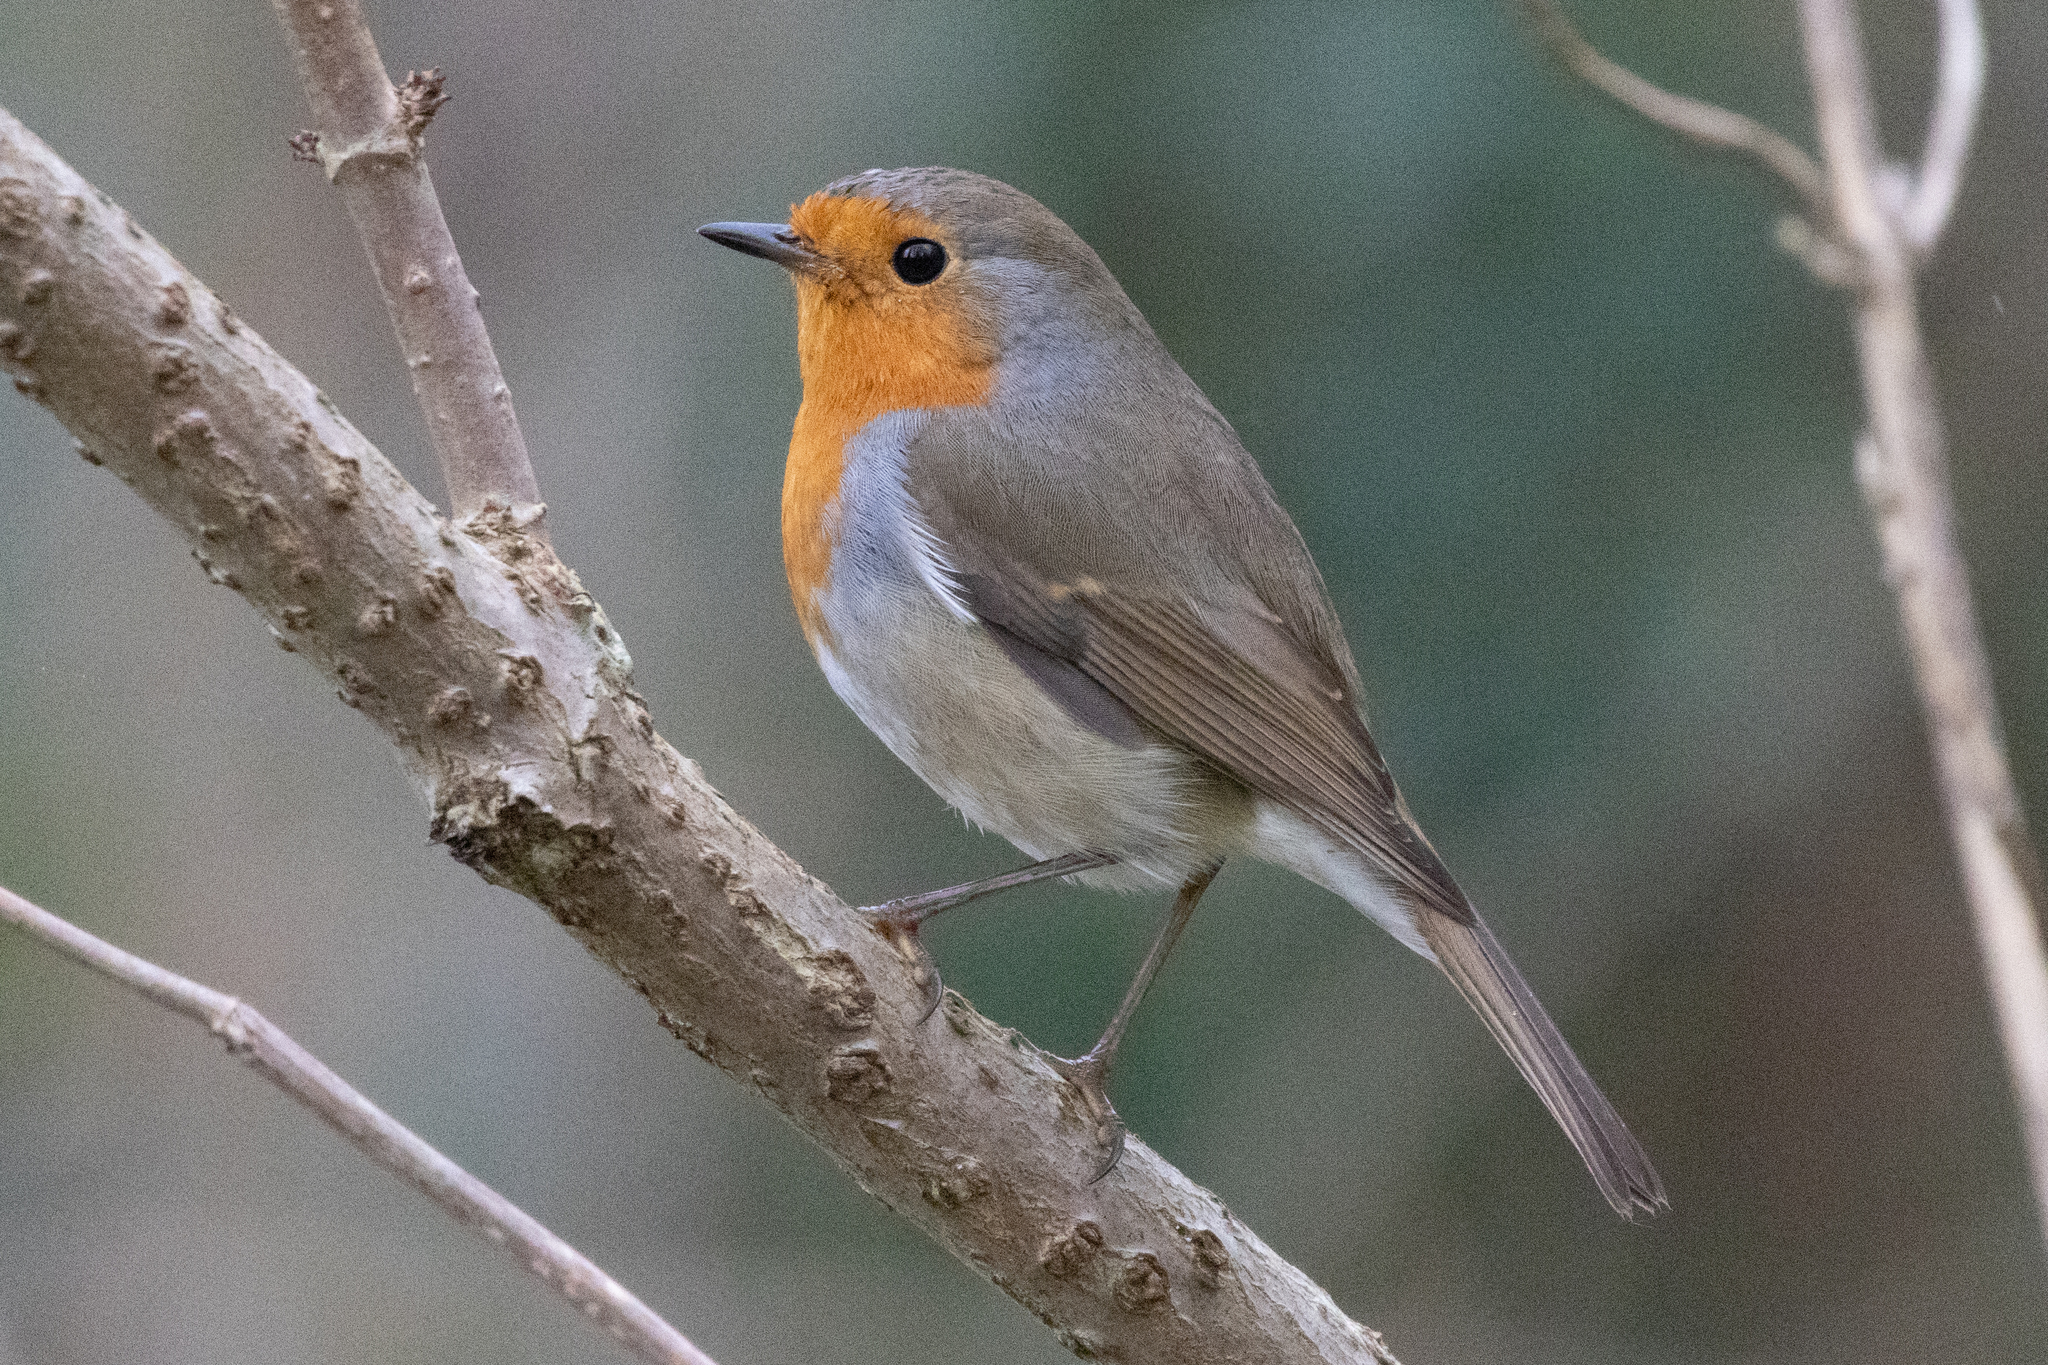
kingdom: Animalia
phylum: Chordata
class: Aves
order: Passeriformes
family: Muscicapidae
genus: Erithacus
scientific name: Erithacus rubecula
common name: European robin
